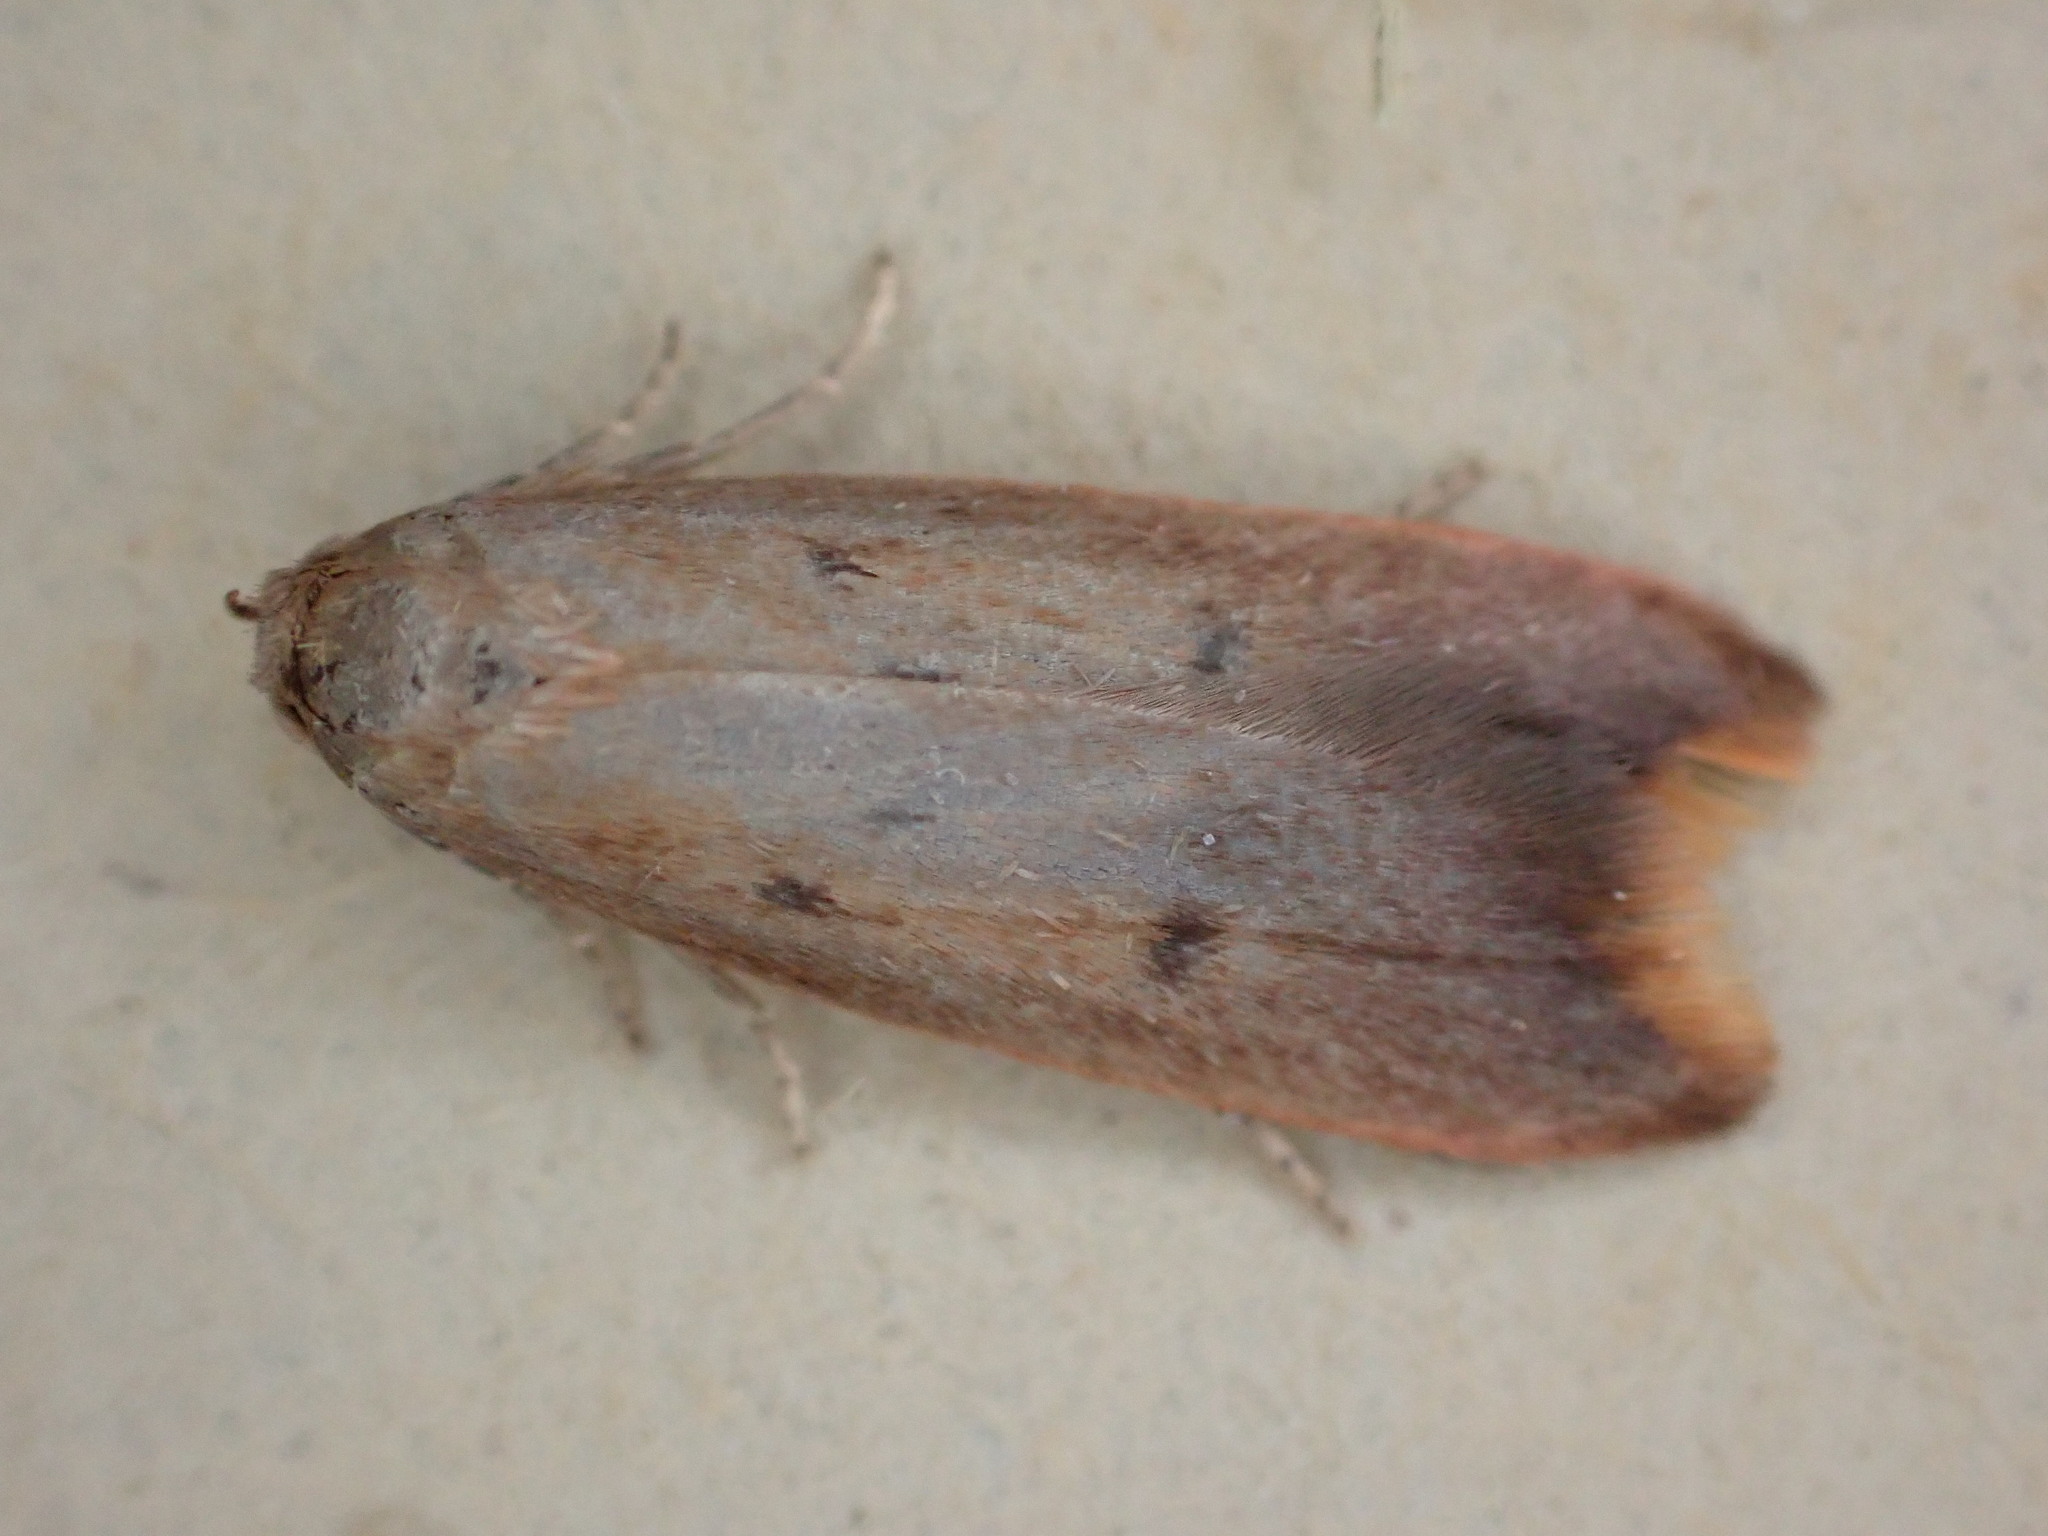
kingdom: Animalia
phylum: Arthropoda
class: Insecta
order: Lepidoptera
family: Oecophoridae
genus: Tachystola
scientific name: Tachystola acroxantha
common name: Ruddy streak
